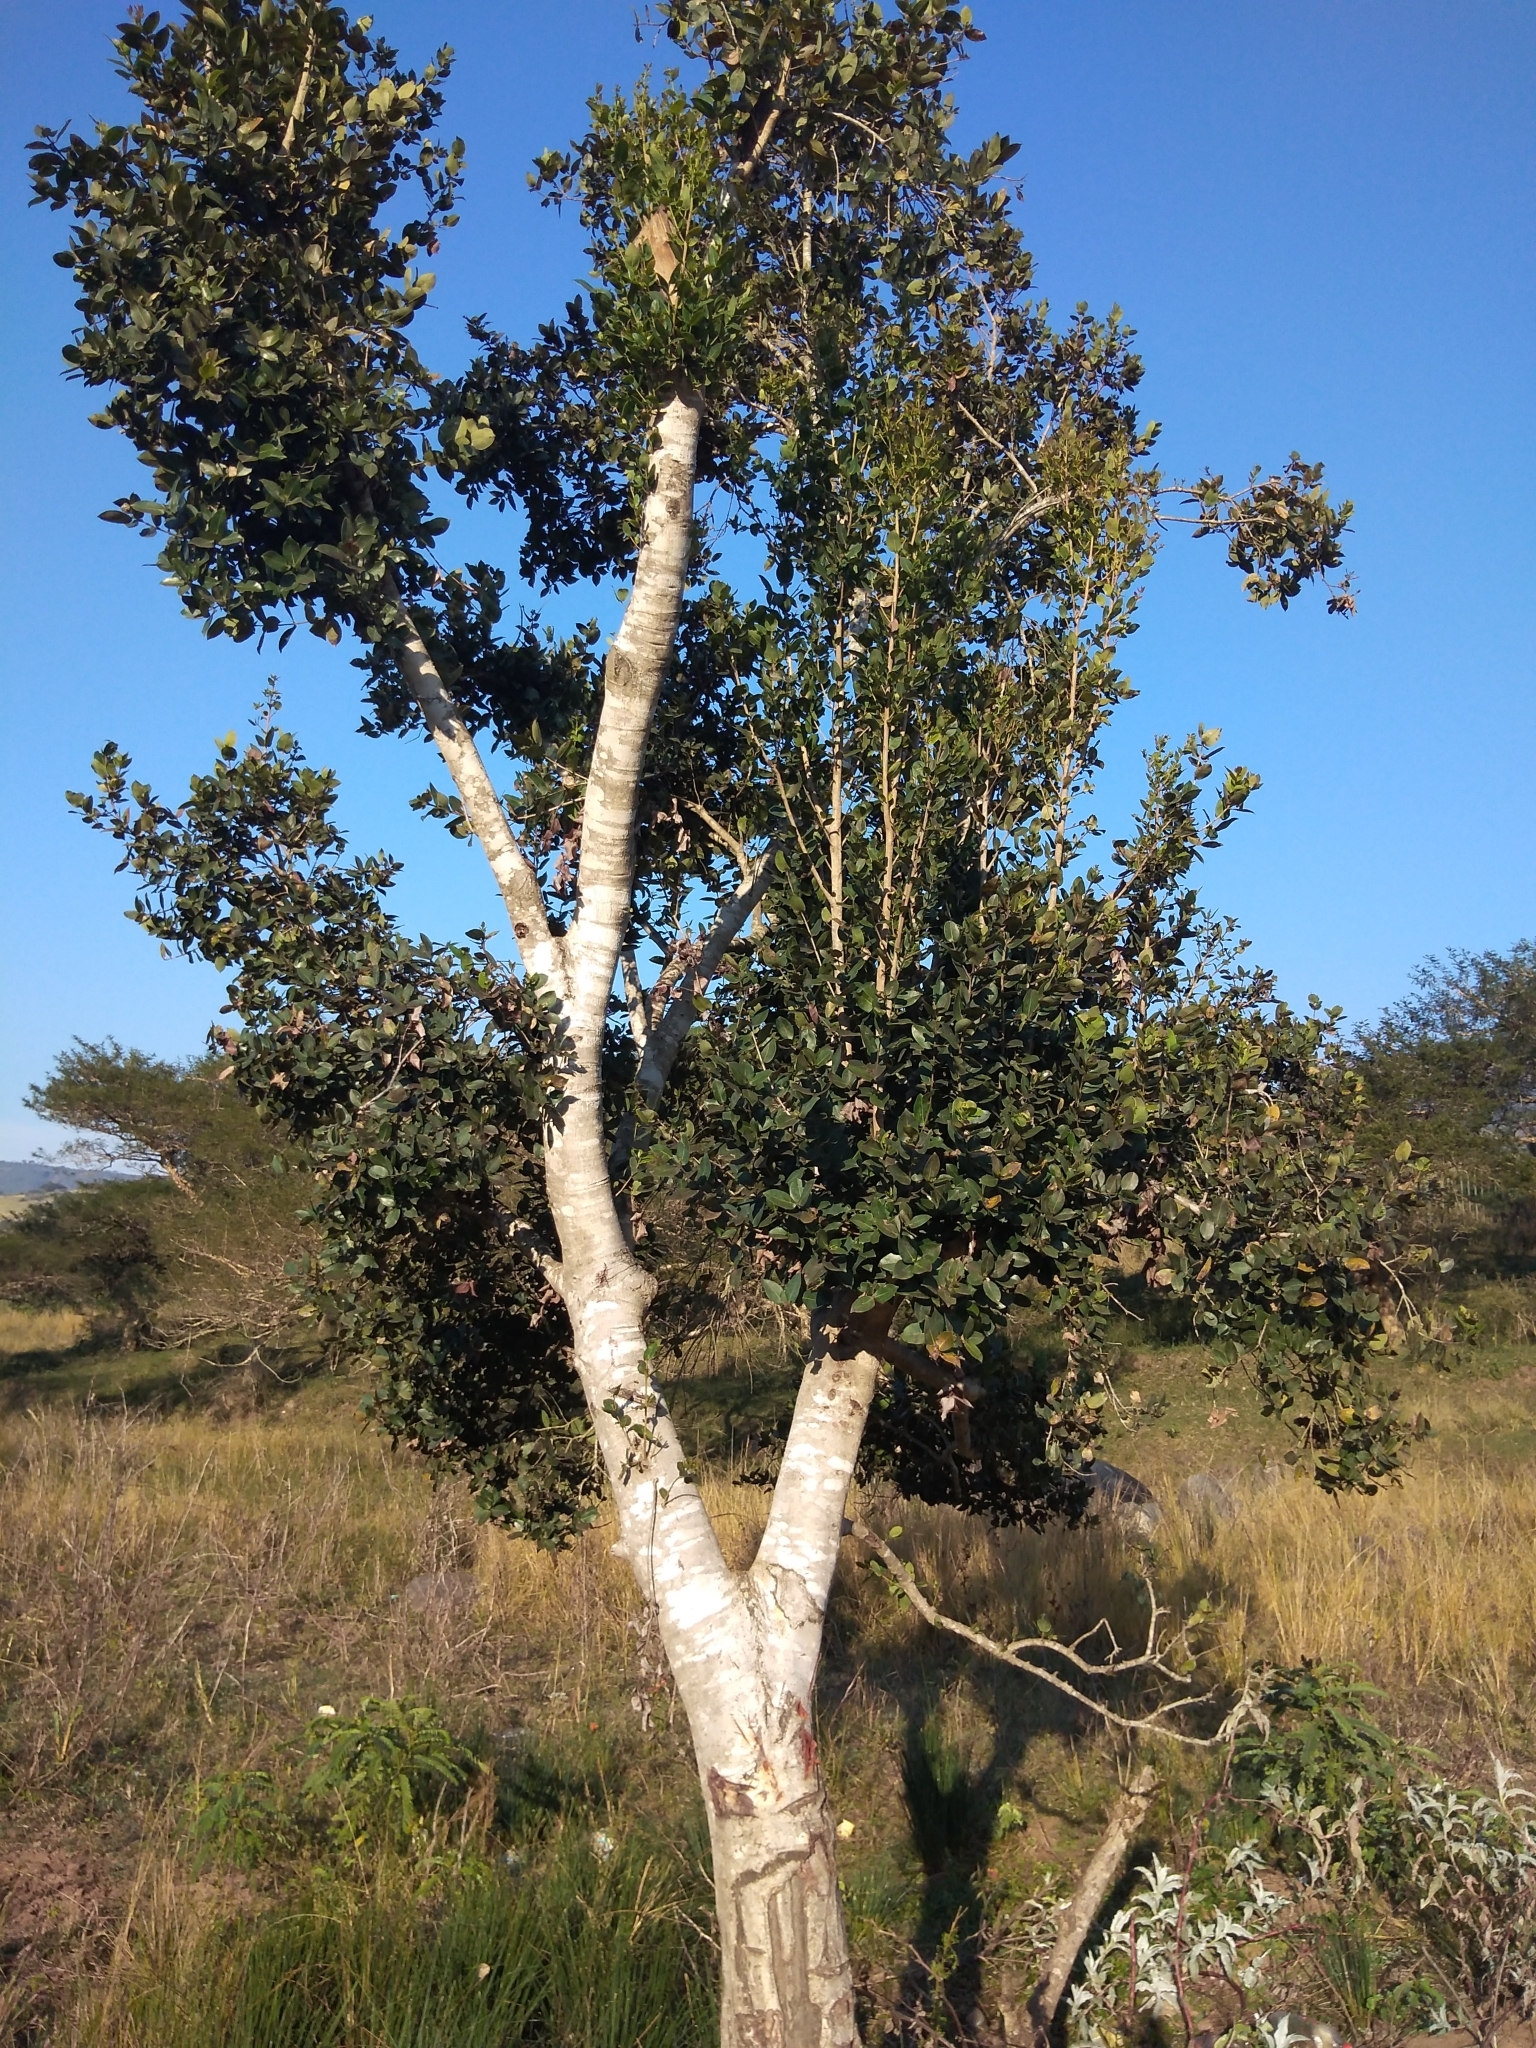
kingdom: Plantae
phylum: Tracheophyta
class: Magnoliopsida
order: Myrtales
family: Myrtaceae
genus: Syzygium
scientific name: Syzygium cordatum
